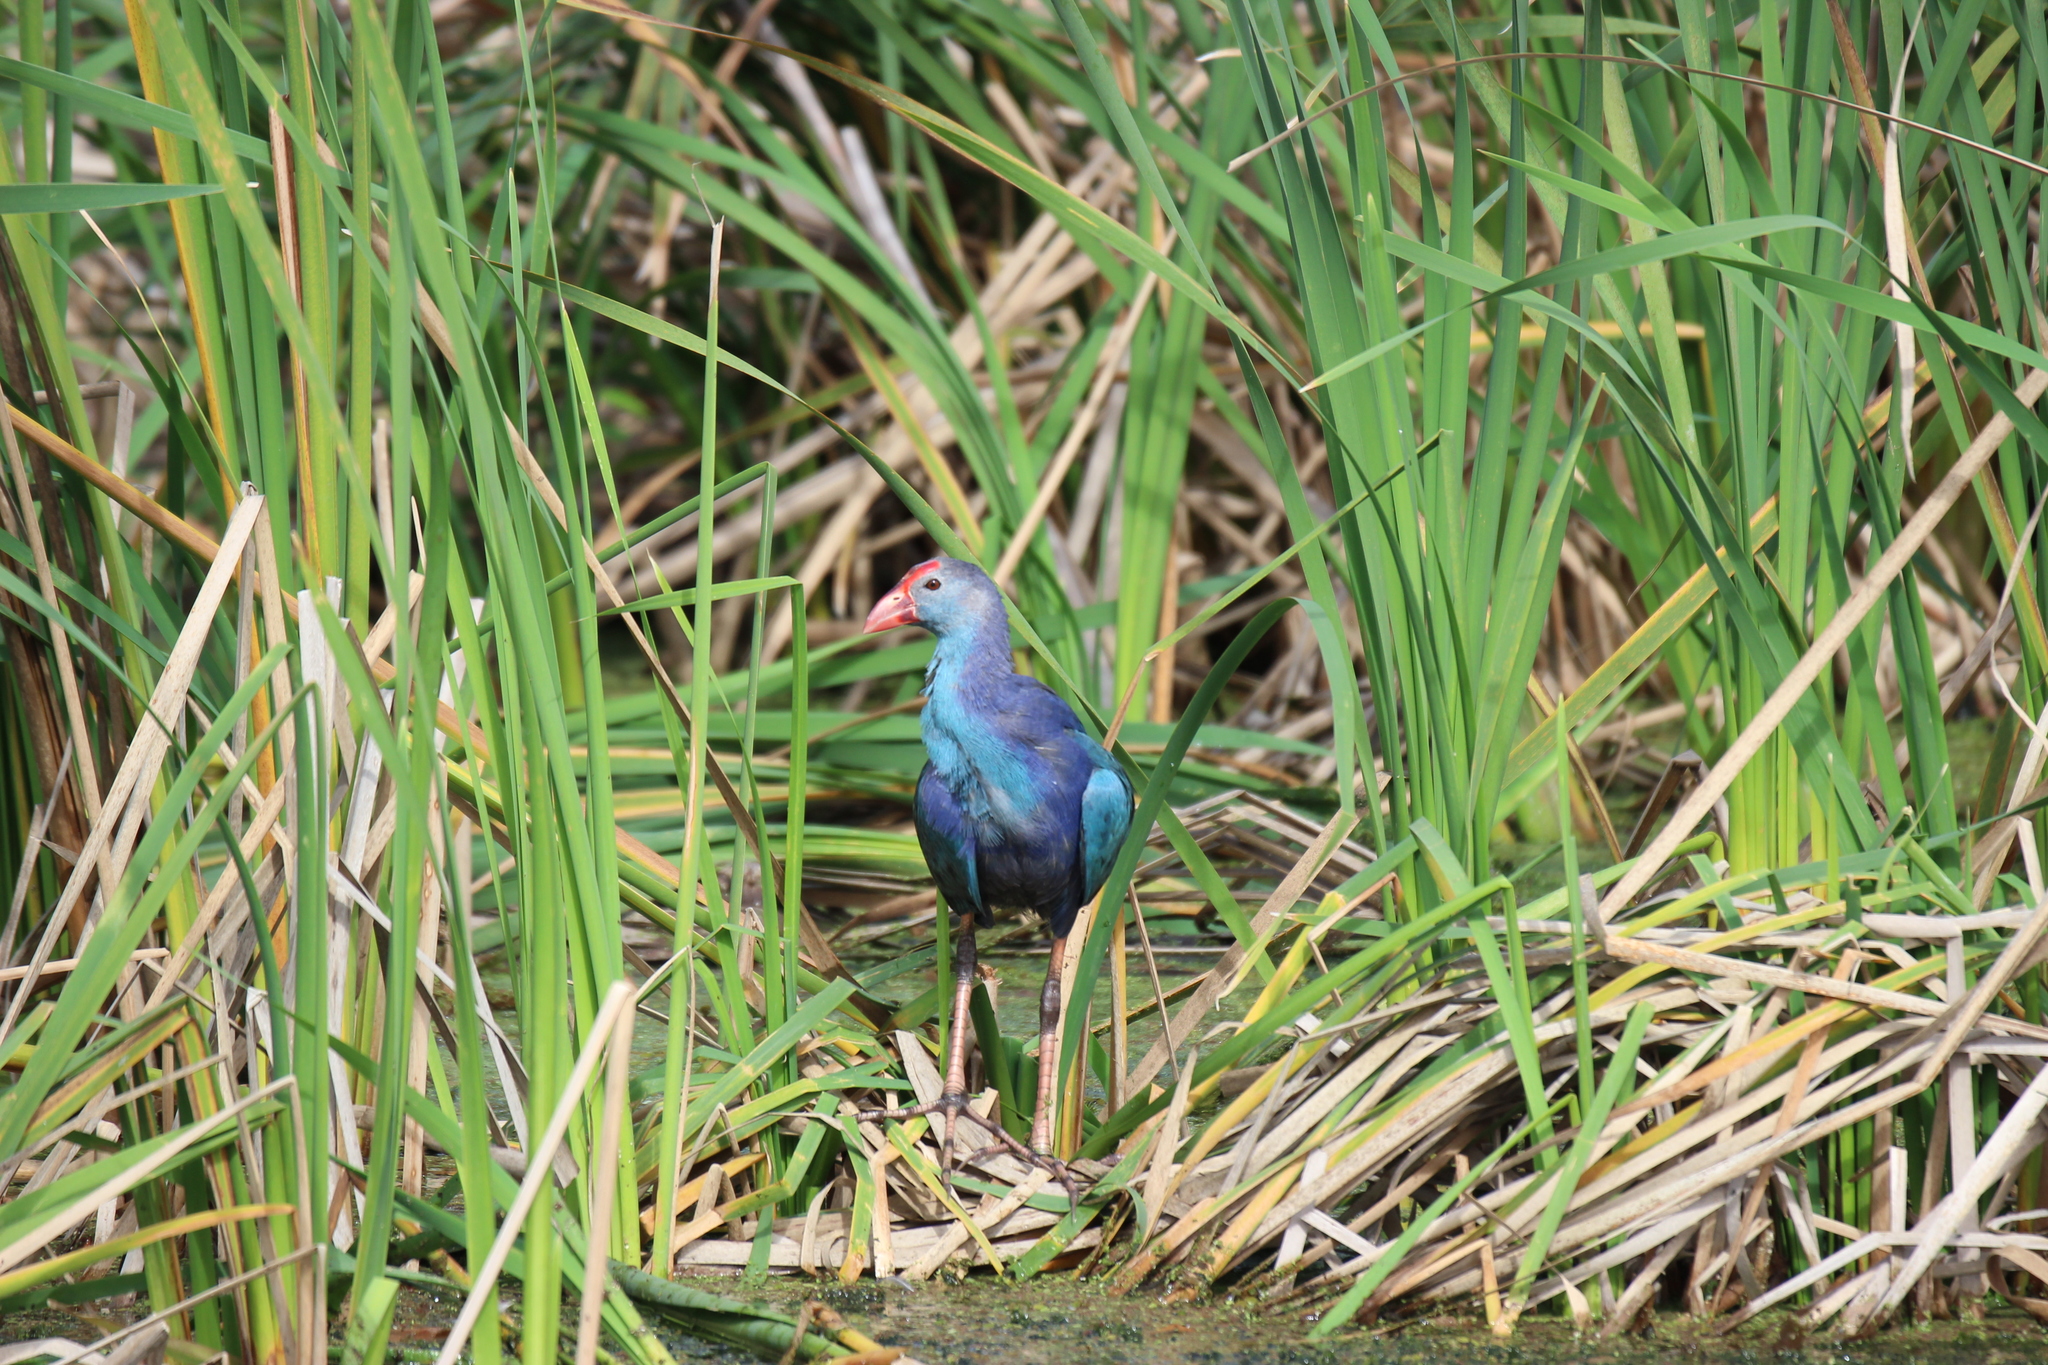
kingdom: Animalia
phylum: Chordata
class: Aves
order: Gruiformes
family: Rallidae
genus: Porphyrio
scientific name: Porphyrio porphyrio
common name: Purple swamphen
